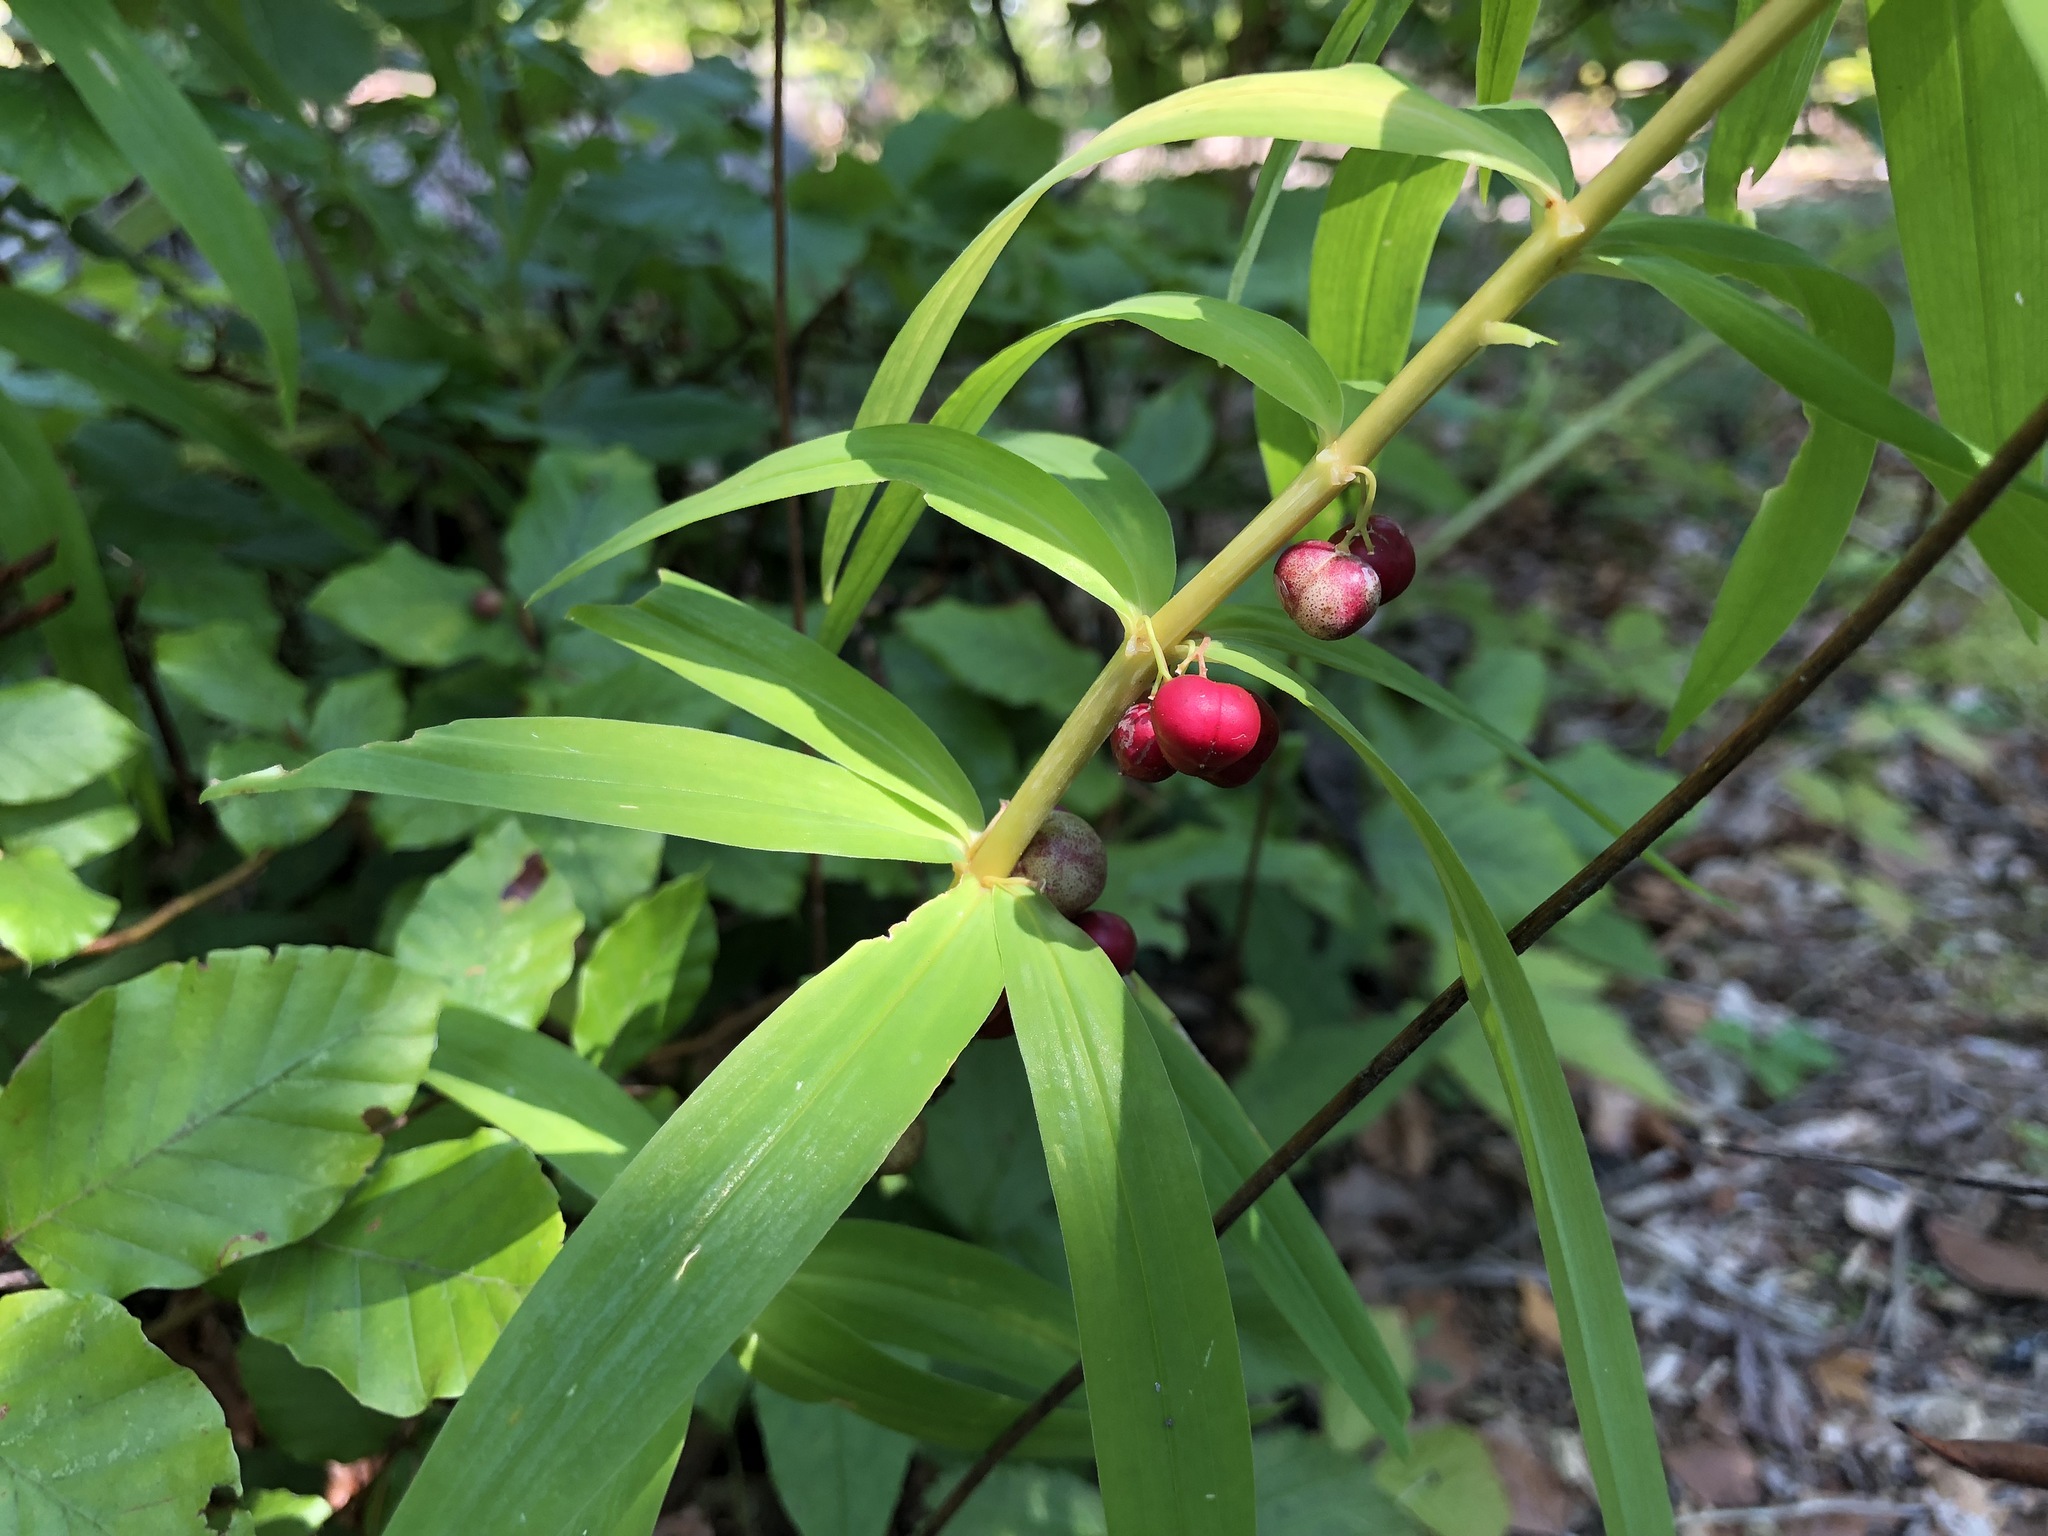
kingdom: Plantae
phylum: Tracheophyta
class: Liliopsida
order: Asparagales
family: Asparagaceae
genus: Polygonatum
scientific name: Polygonatum verticillatum
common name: Whorled solomon's-seal
